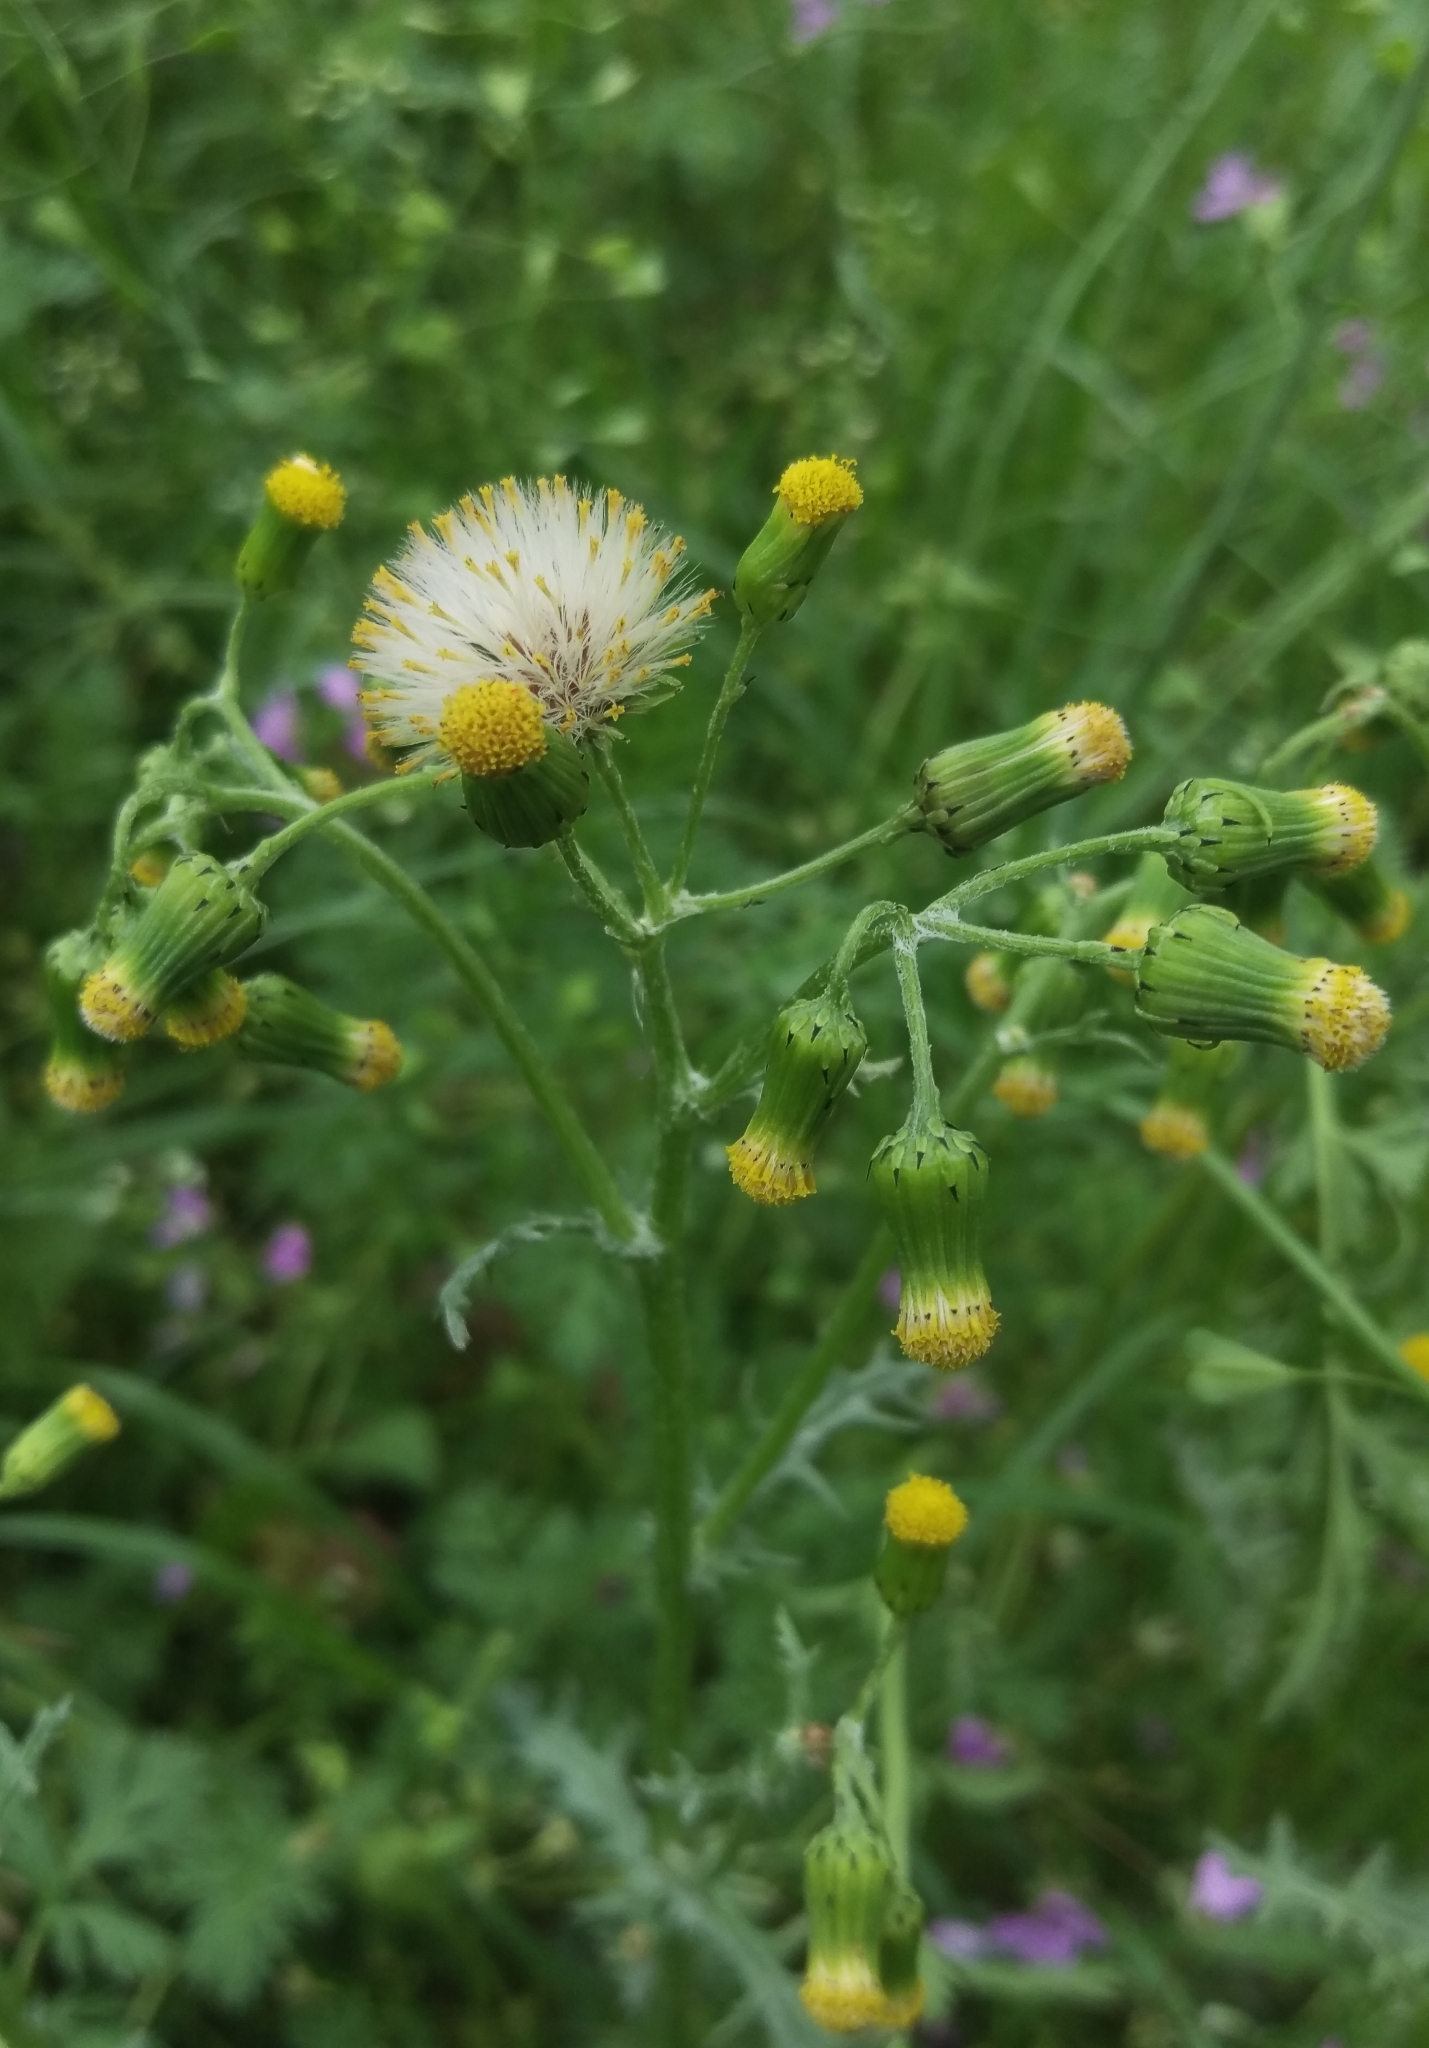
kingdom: Plantae
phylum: Tracheophyta
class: Magnoliopsida
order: Asterales
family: Asteraceae
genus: Senecio
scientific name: Senecio vulgaris
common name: Old-man-in-the-spring
